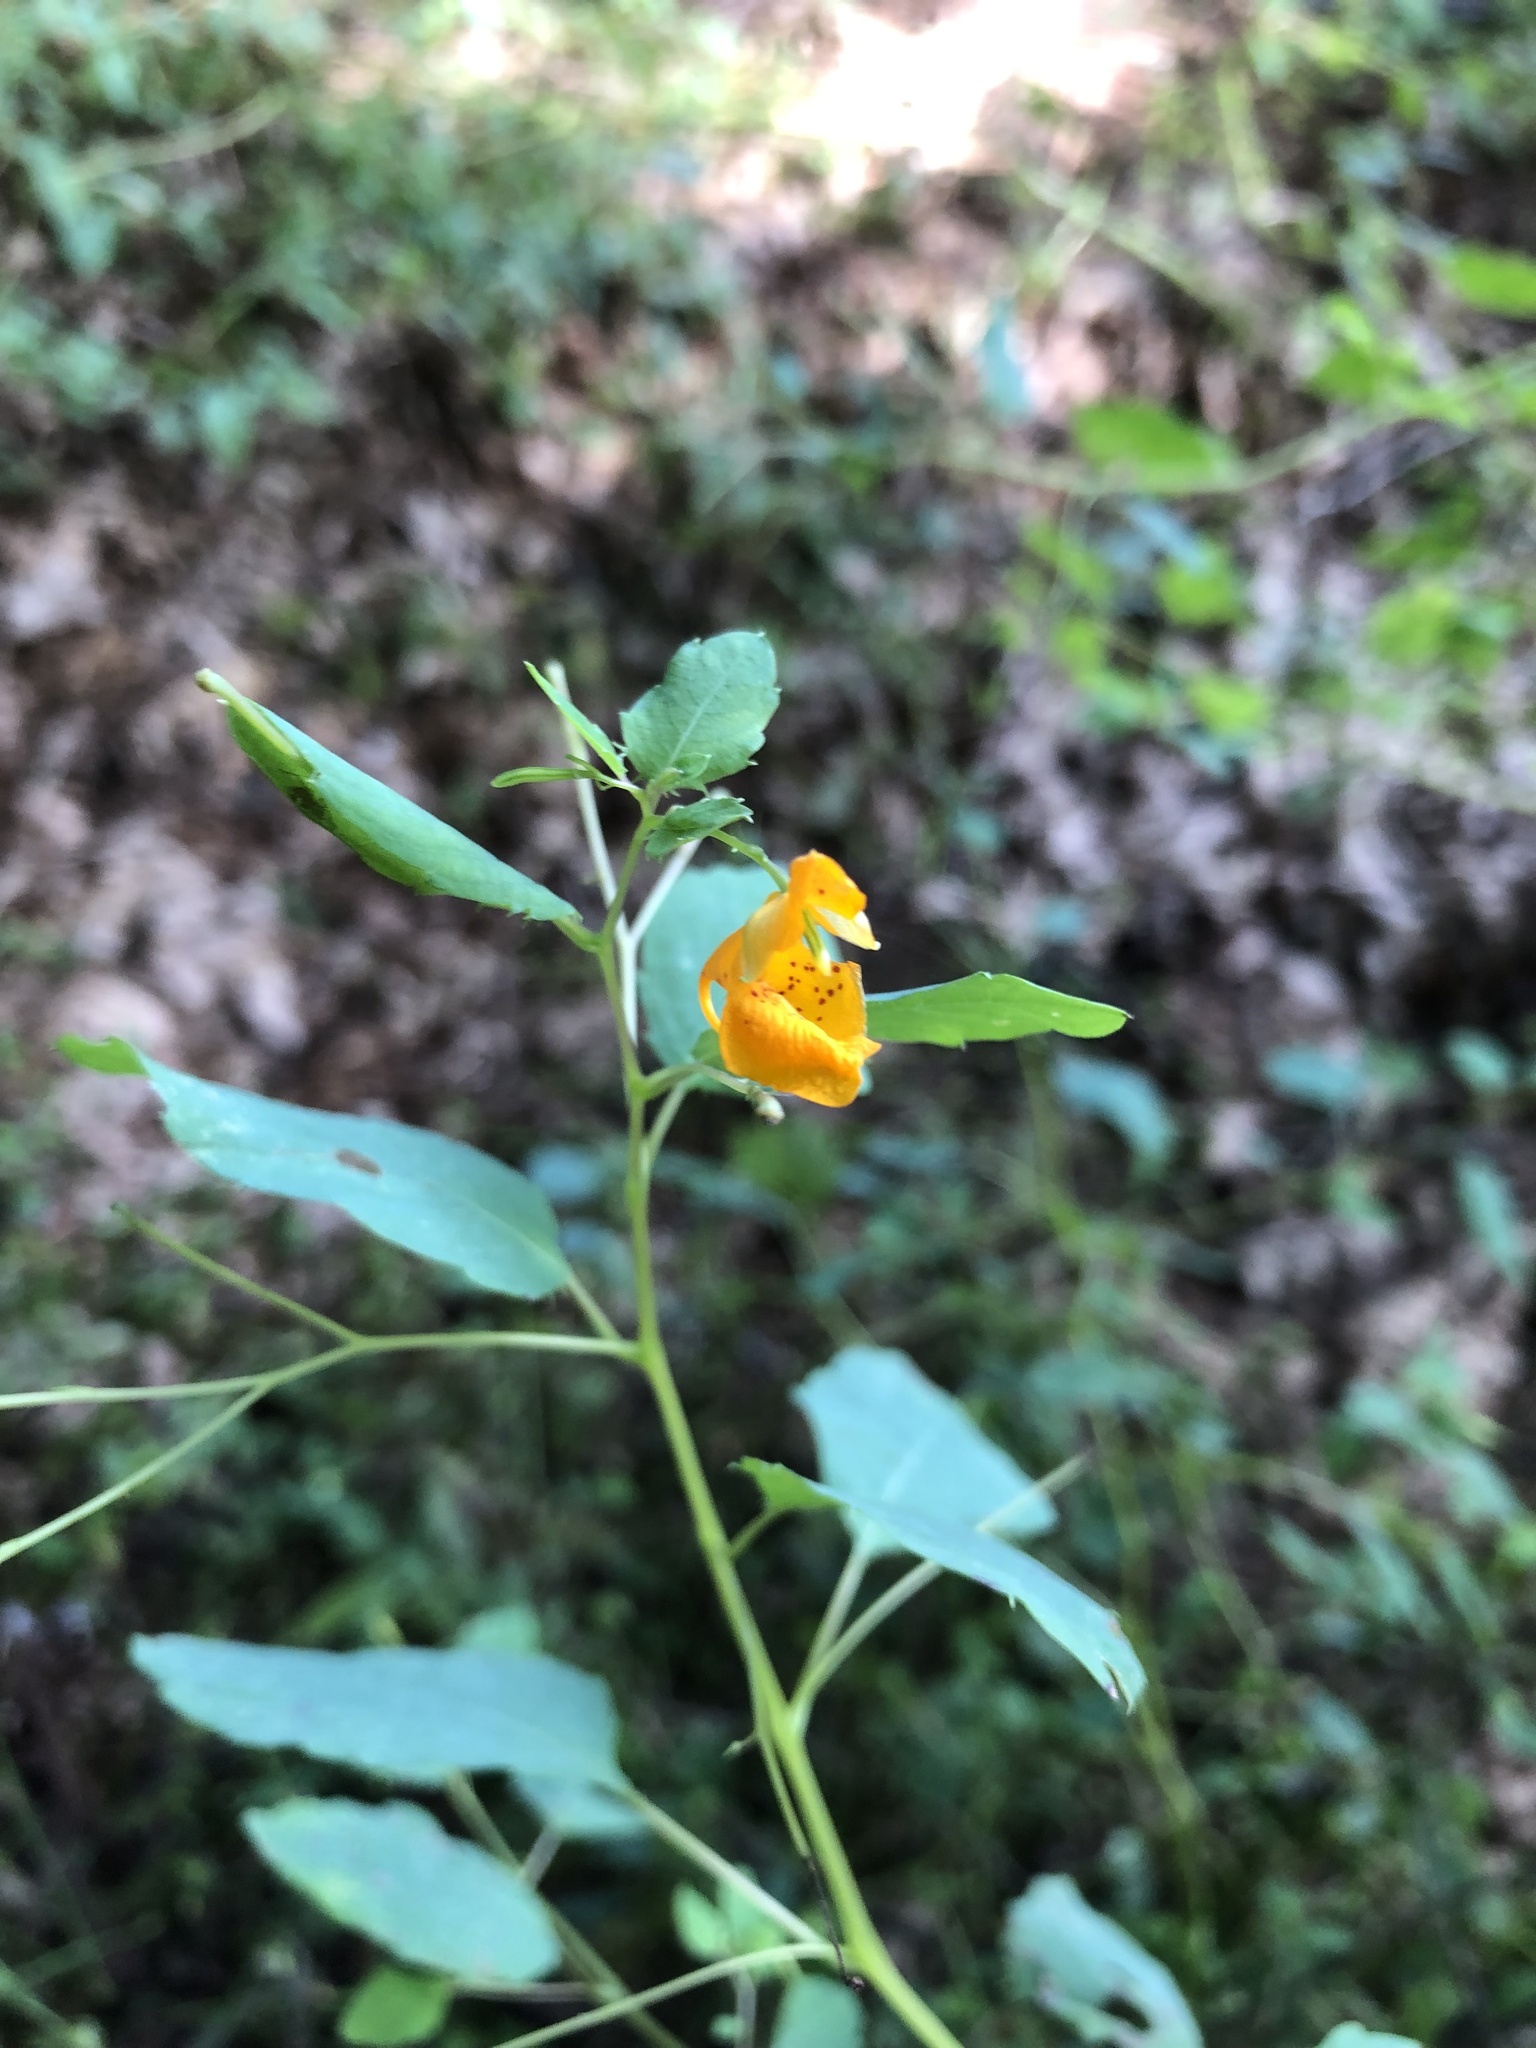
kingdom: Plantae
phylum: Tracheophyta
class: Magnoliopsida
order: Ericales
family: Balsaminaceae
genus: Impatiens
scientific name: Impatiens capensis
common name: Orange balsam
